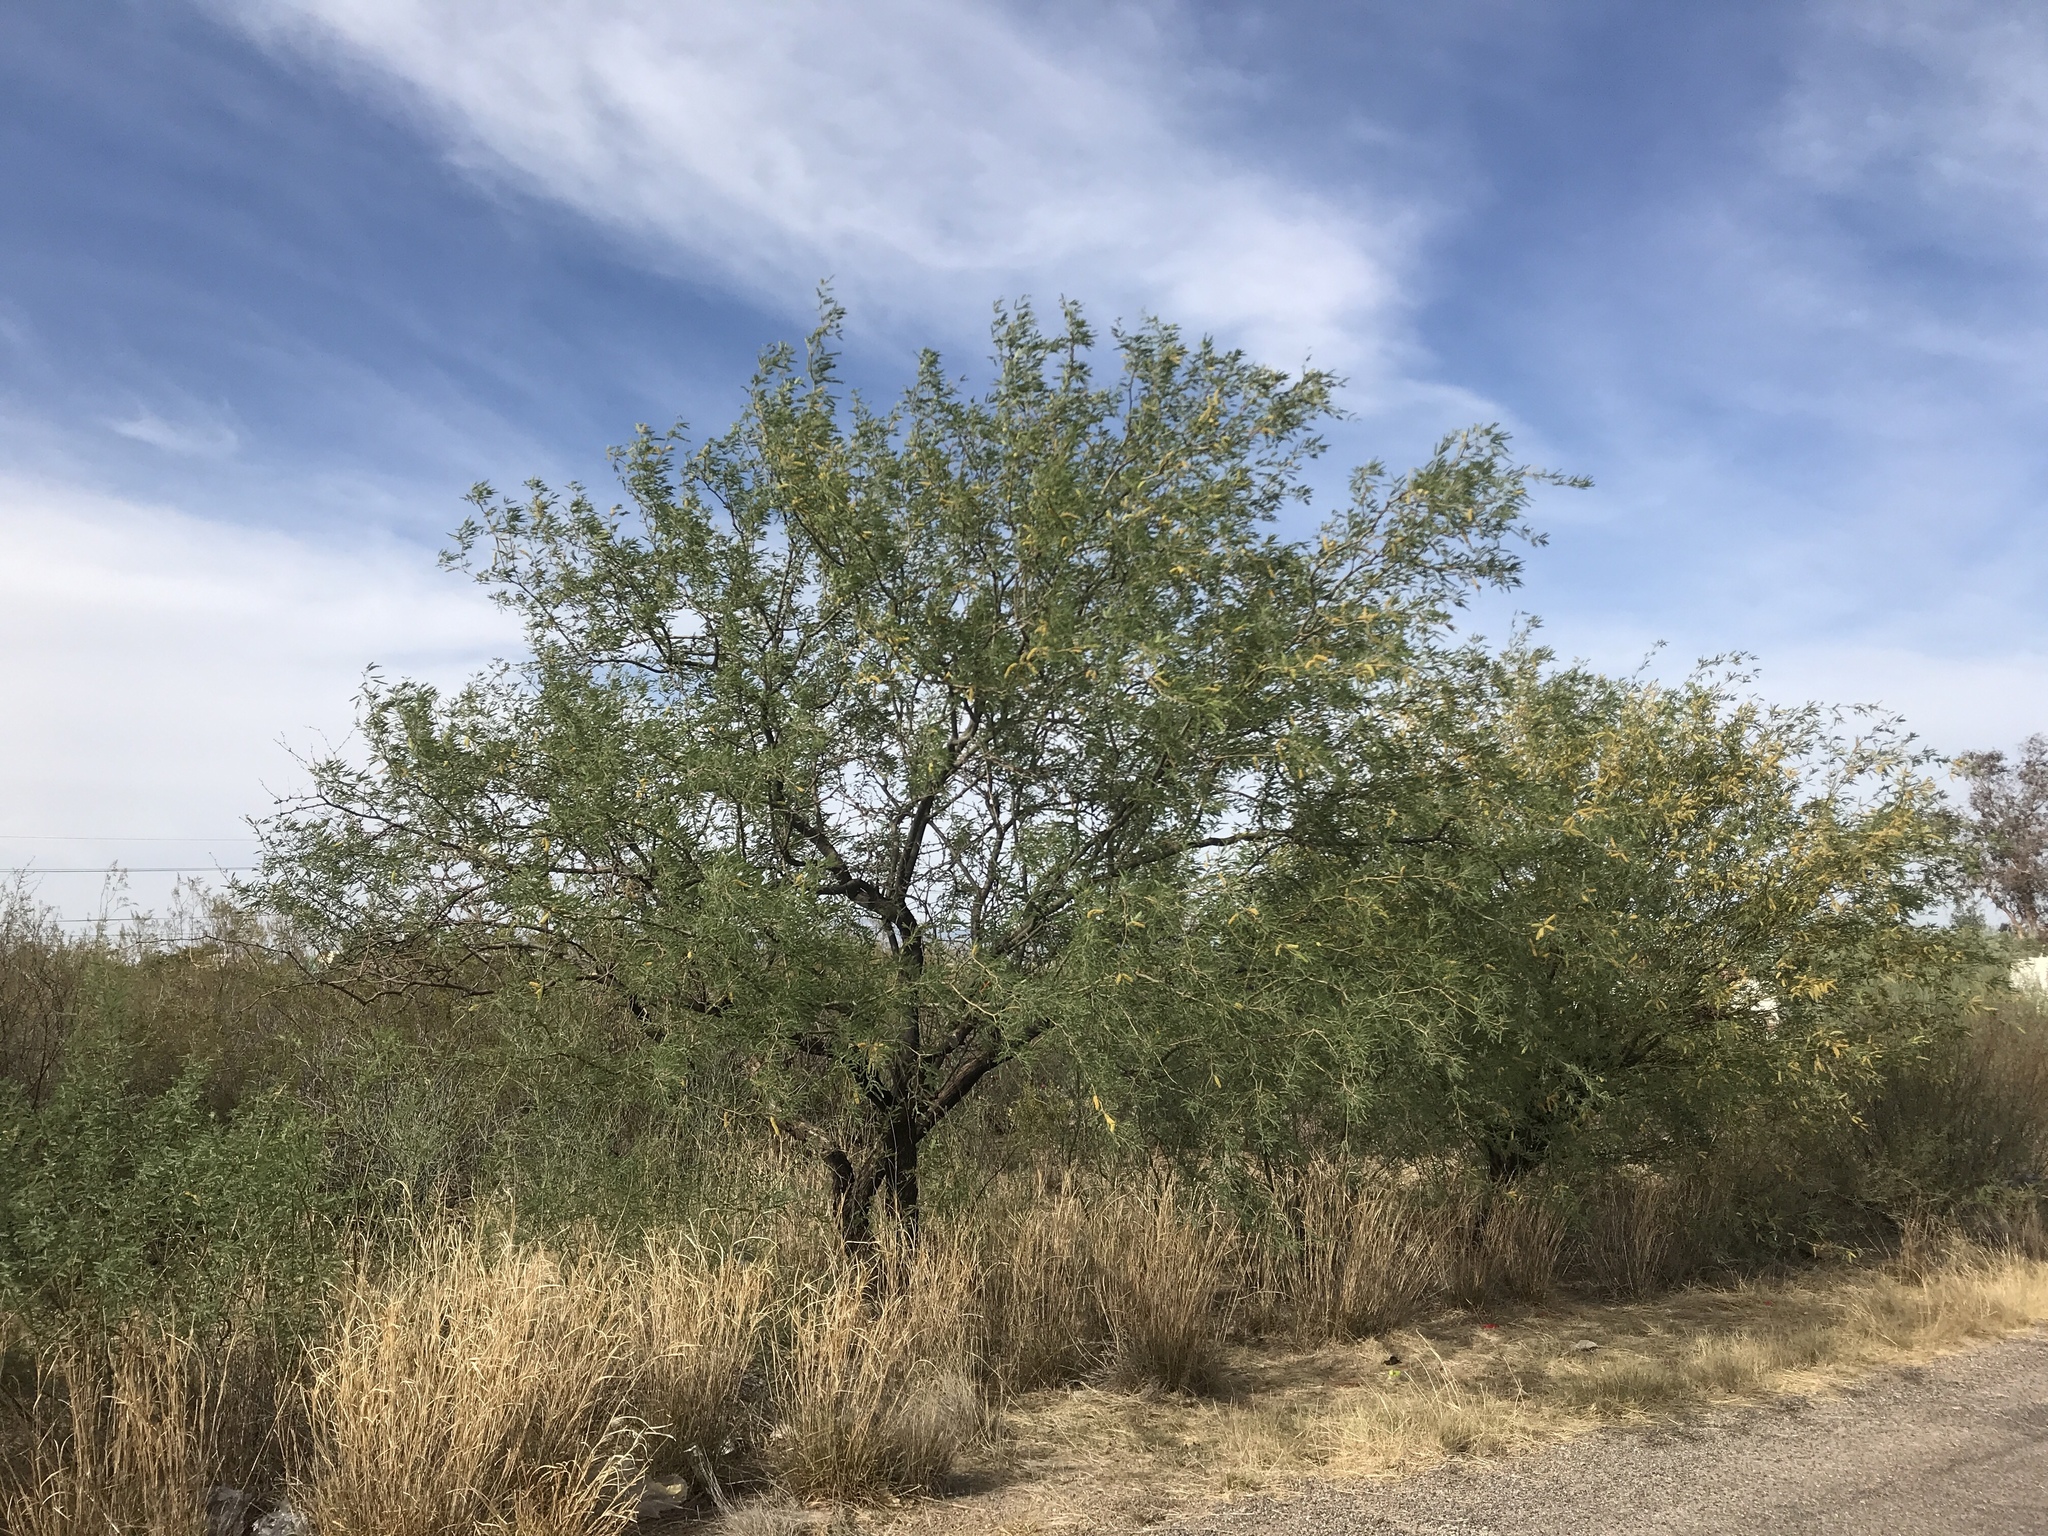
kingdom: Plantae
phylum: Tracheophyta
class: Magnoliopsida
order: Fabales
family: Fabaceae
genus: Prosopis
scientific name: Prosopis velutina
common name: Velvet mesquite
